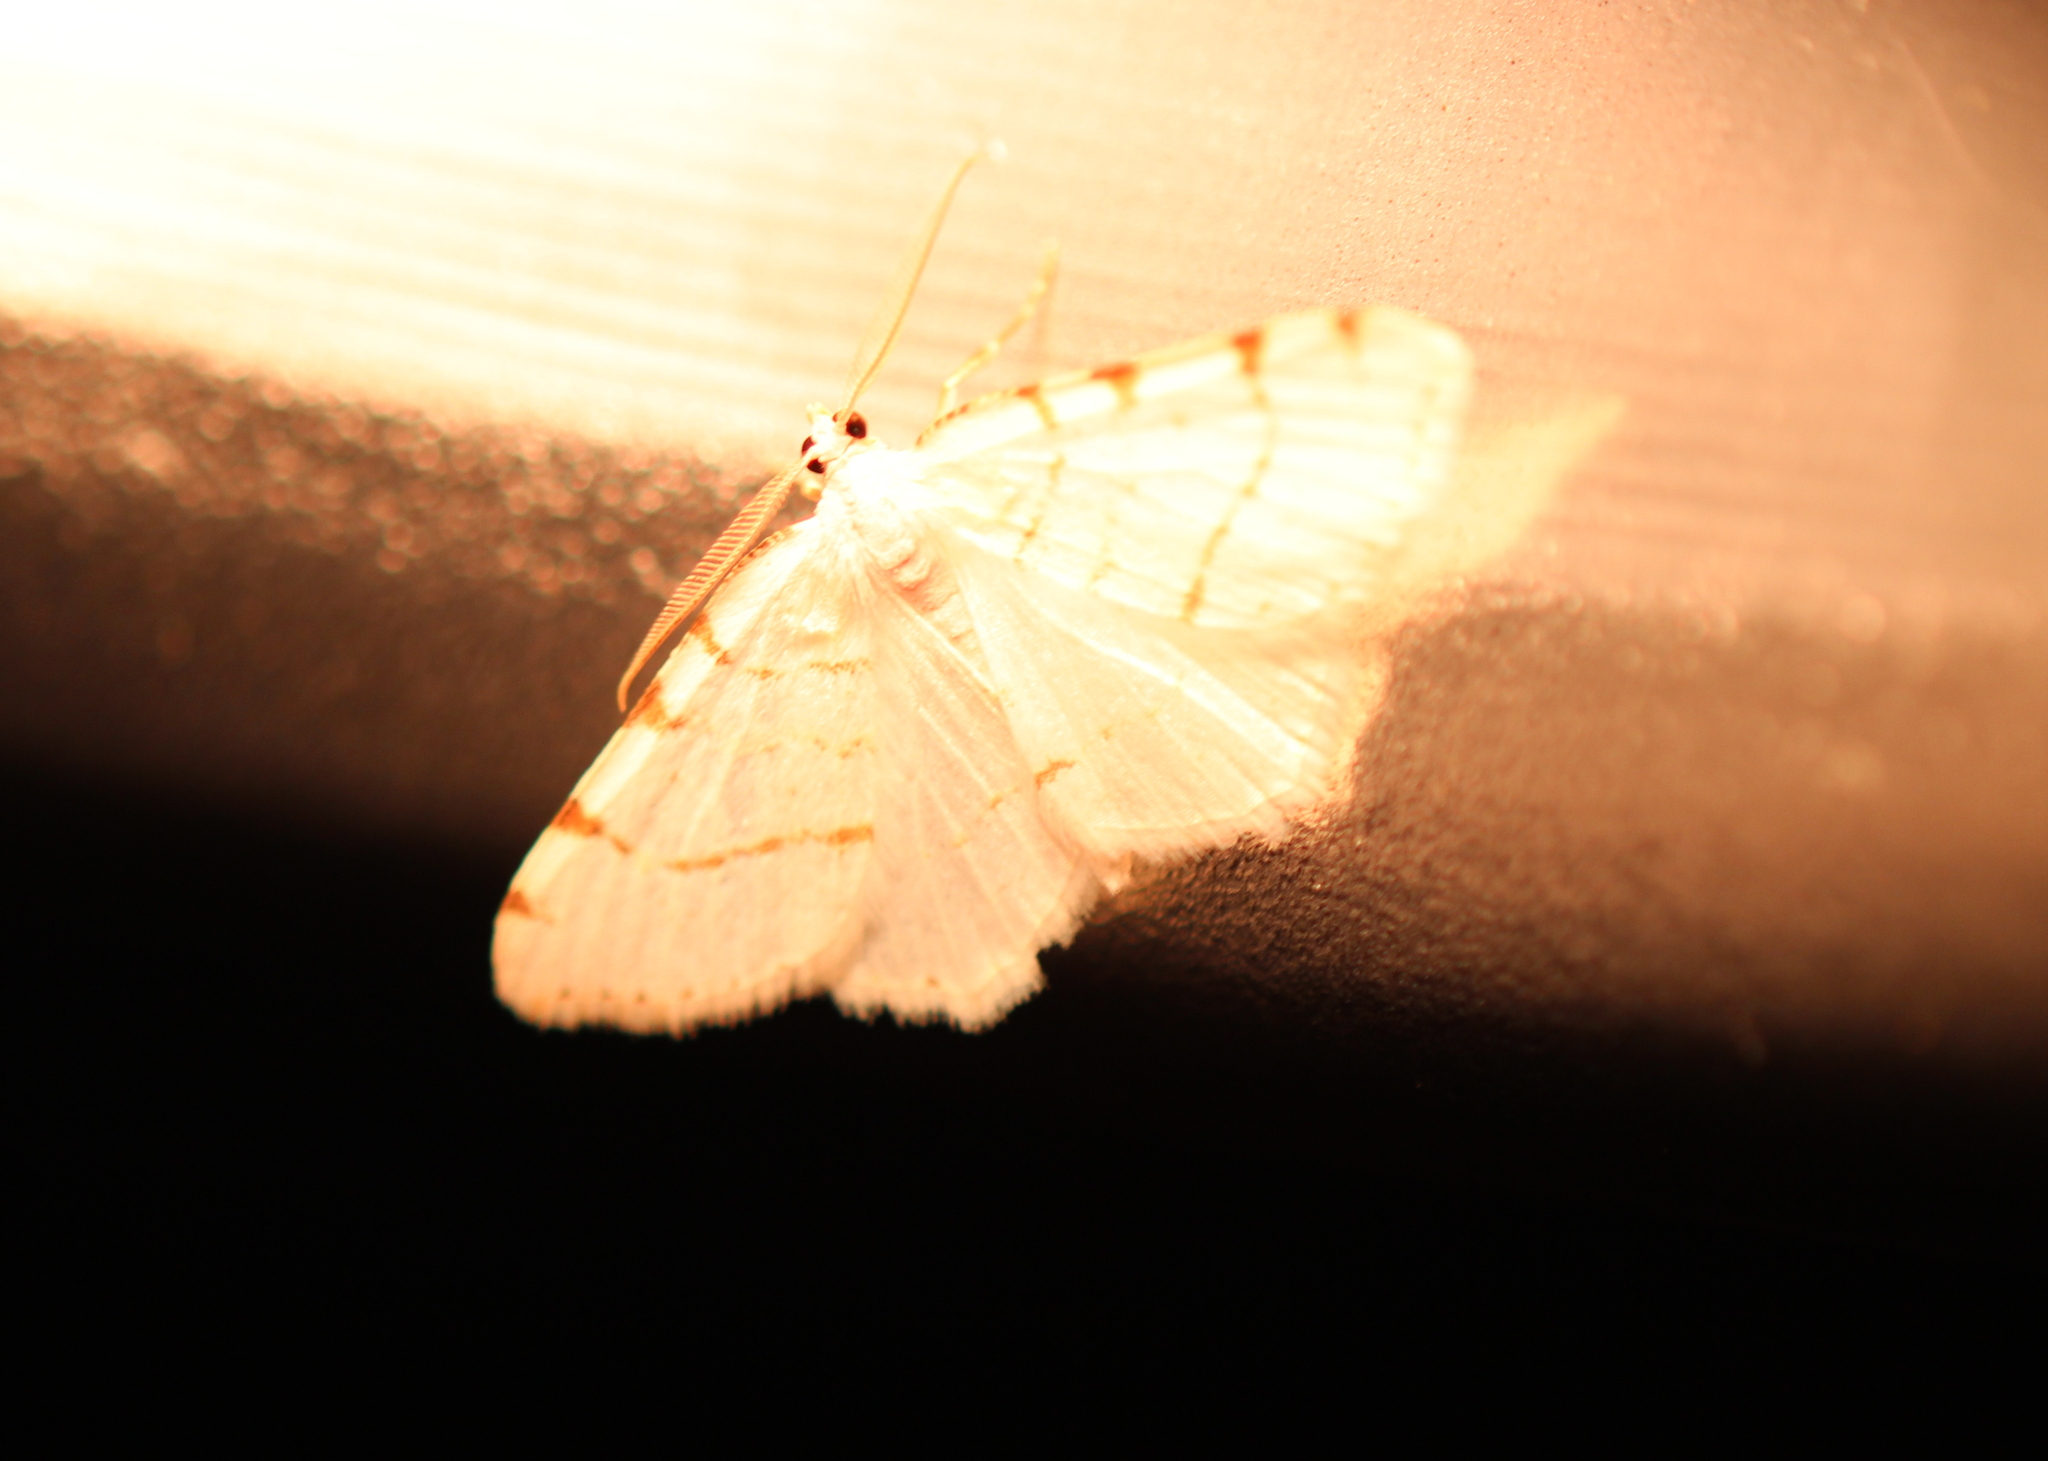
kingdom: Animalia
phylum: Arthropoda
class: Insecta
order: Lepidoptera
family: Geometridae
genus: Macaria
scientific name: Macaria pustularia
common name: Lesser maple spanworm moth
